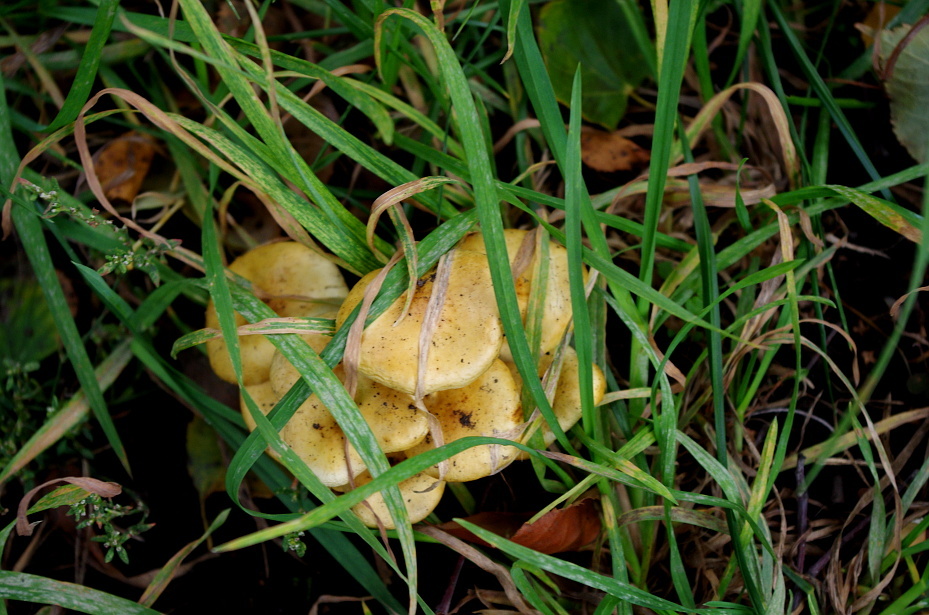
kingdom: Fungi
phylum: Basidiomycota
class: Agaricomycetes
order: Agaricales
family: Physalacriaceae
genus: Flammulina
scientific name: Flammulina
